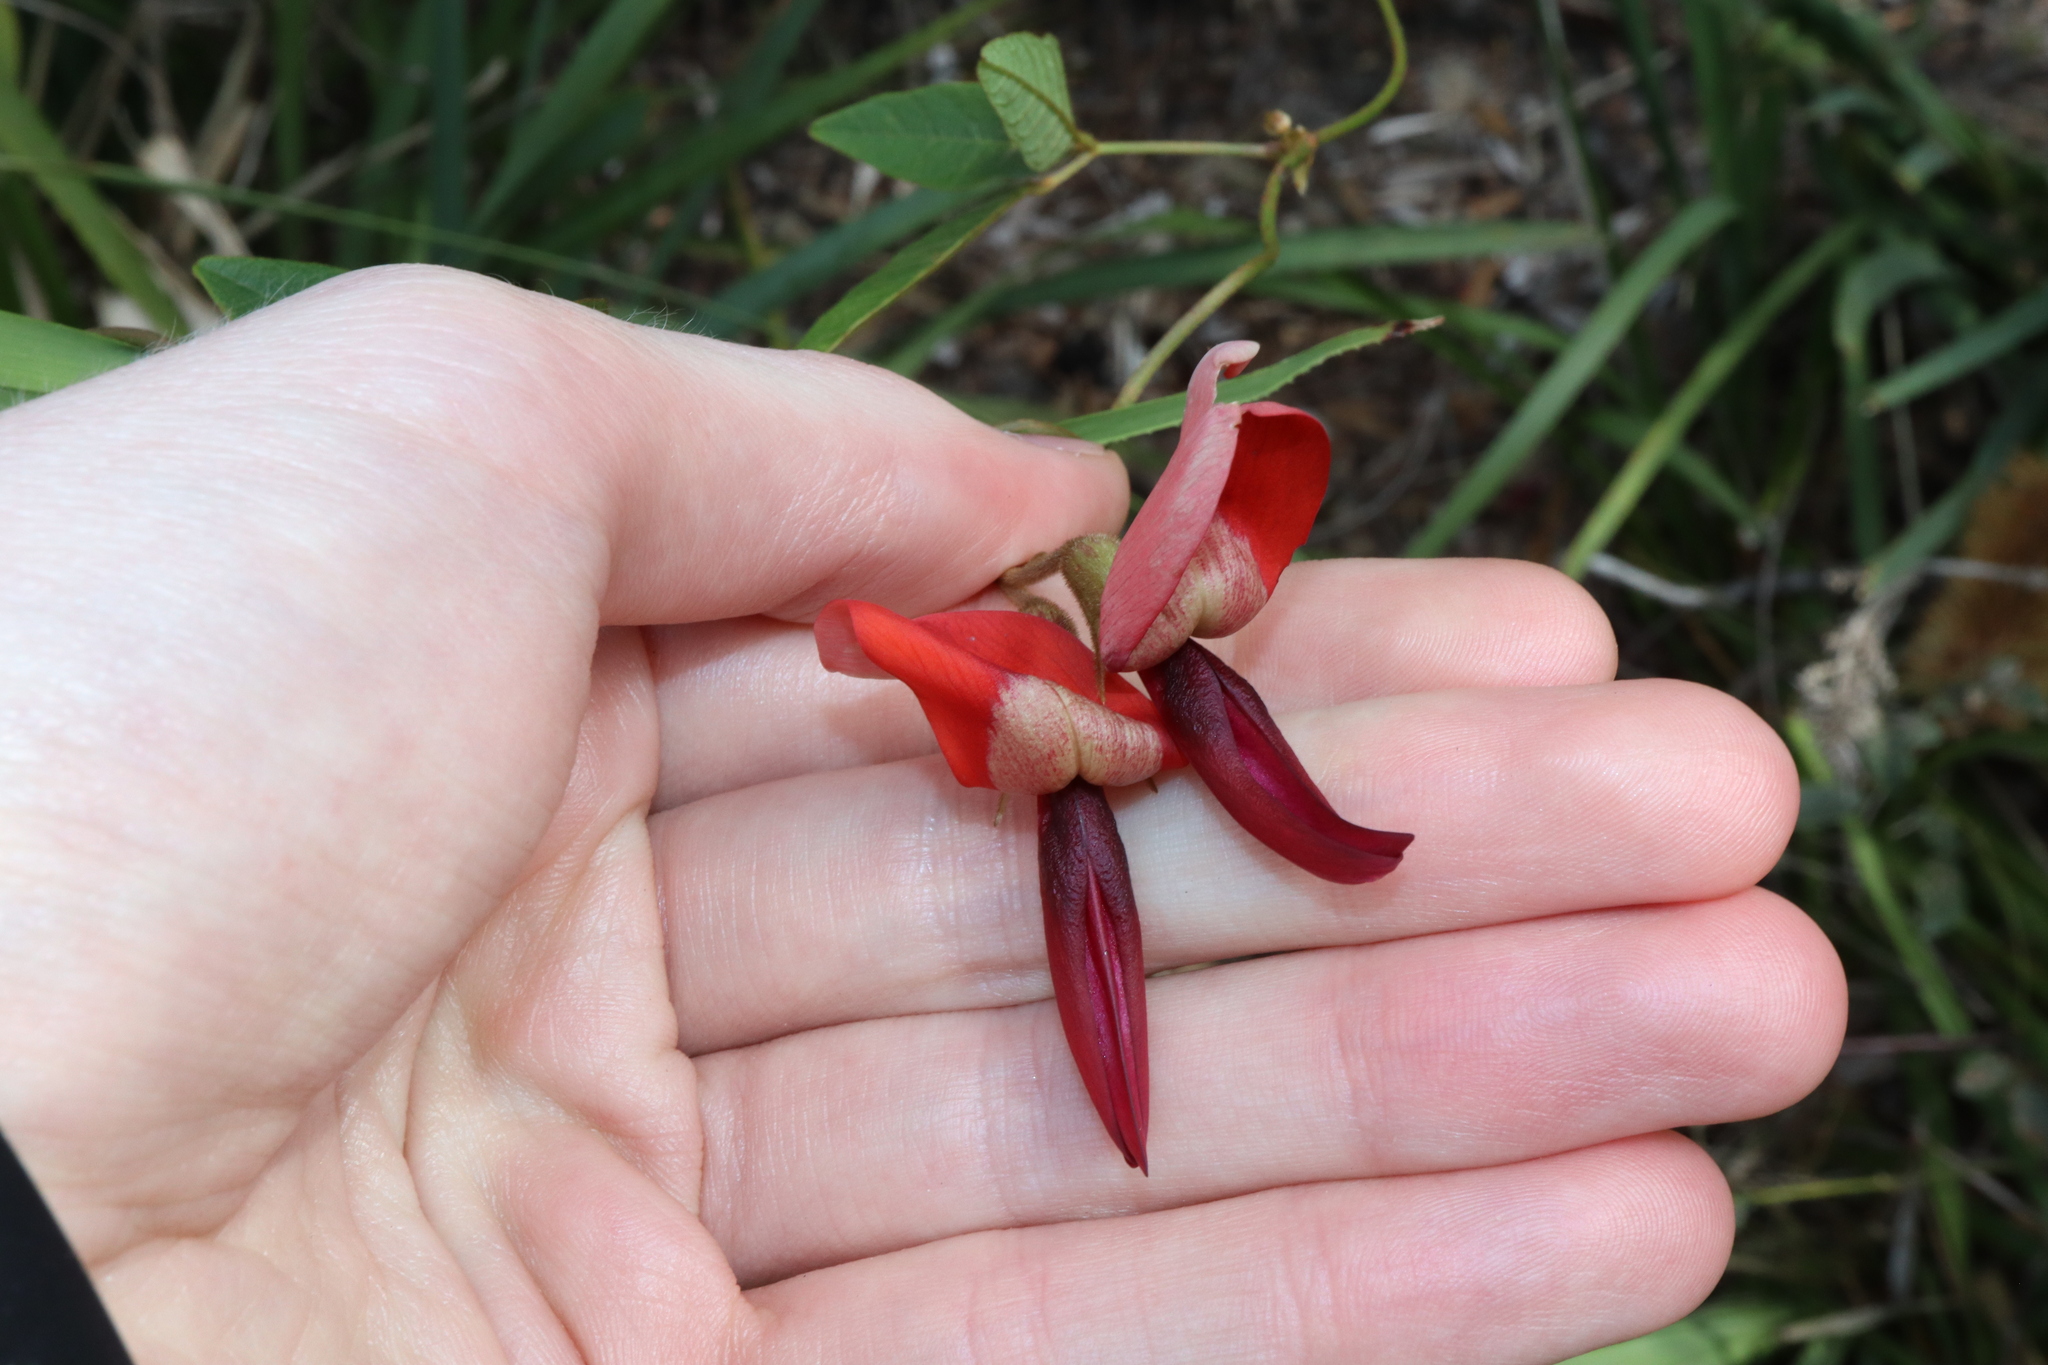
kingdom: Plantae
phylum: Tracheophyta
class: Magnoliopsida
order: Fabales
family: Fabaceae
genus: Kennedia
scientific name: Kennedia rubicunda
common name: Red kennedy-pea
